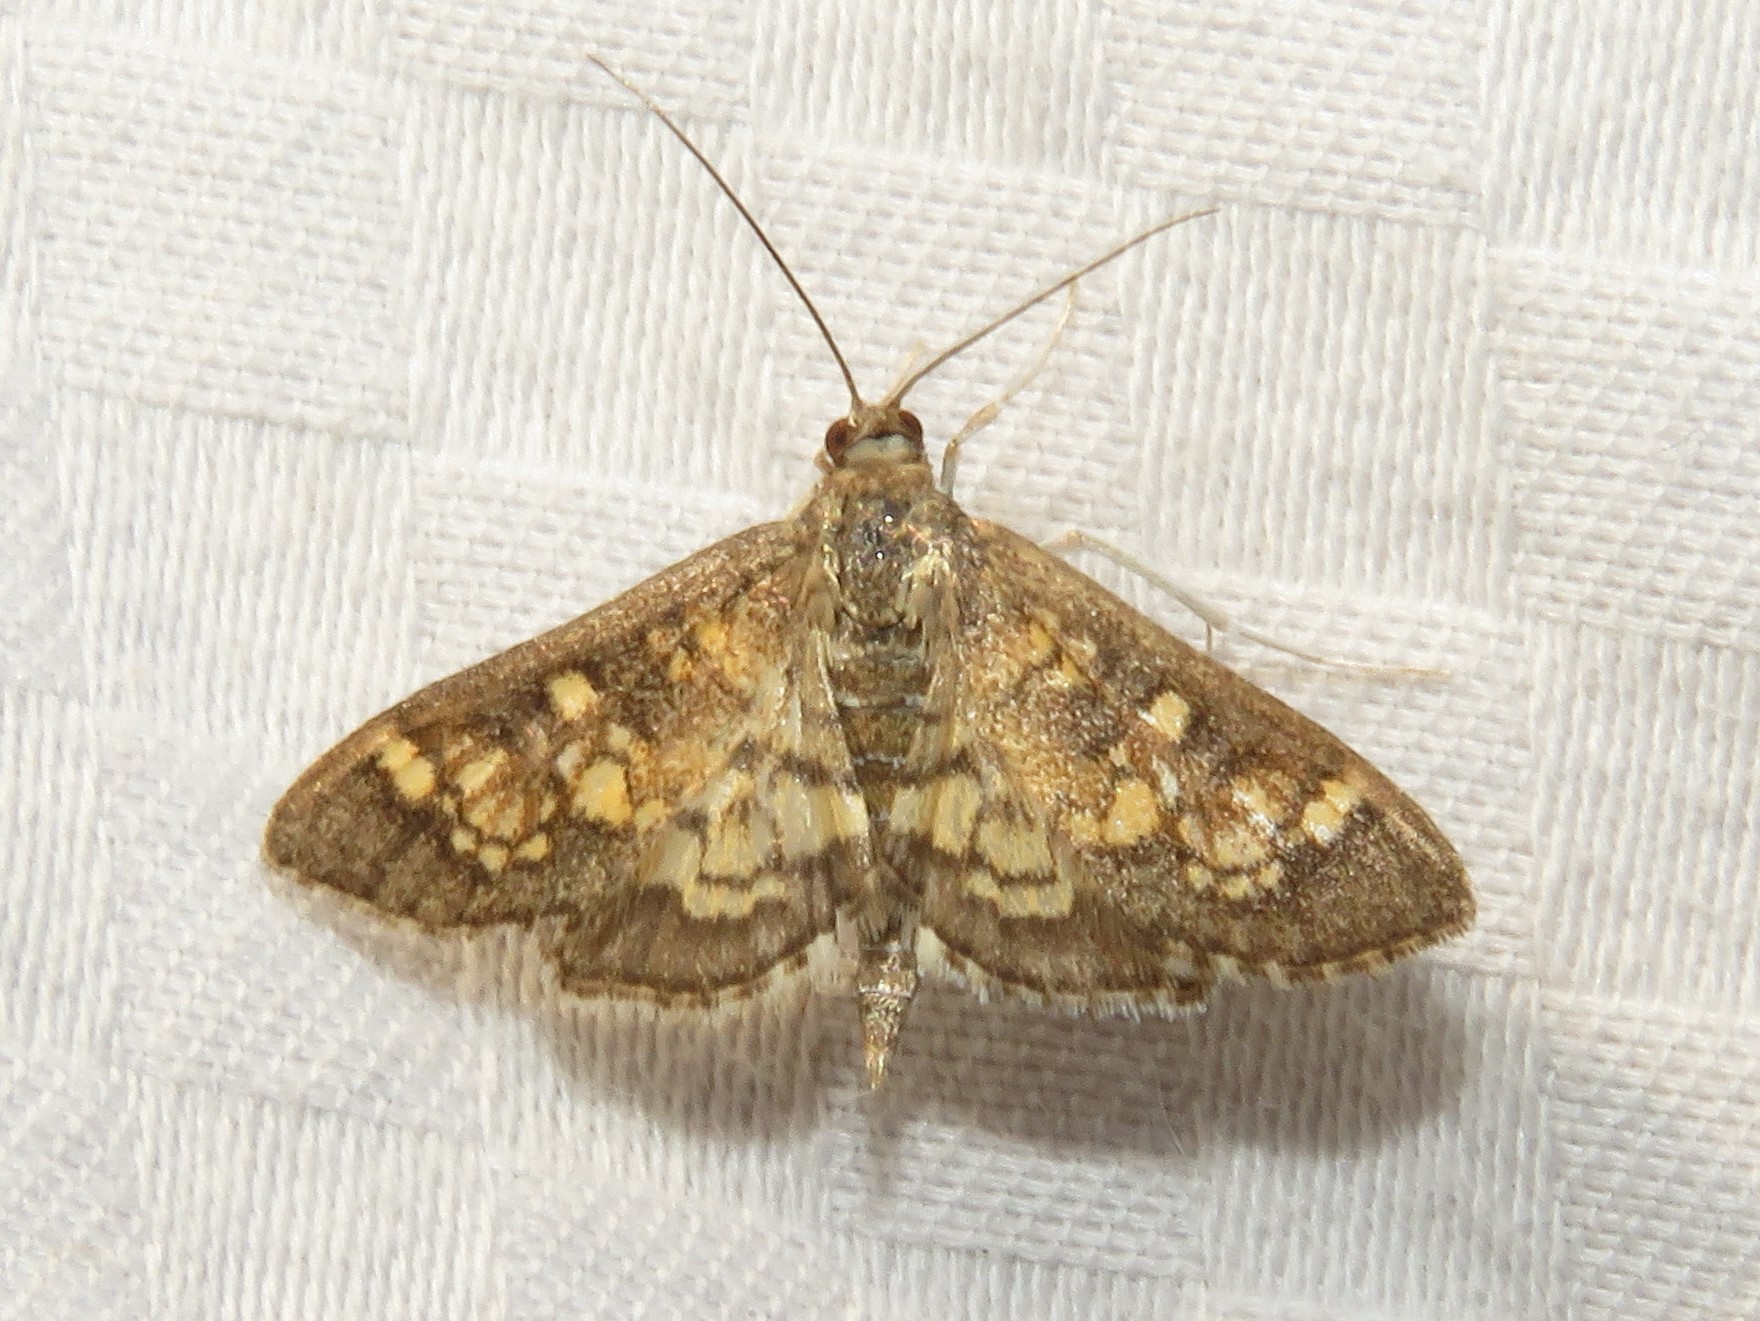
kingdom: Animalia
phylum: Arthropoda
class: Insecta
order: Lepidoptera
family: Crambidae
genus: Epipagis
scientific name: Epipagis adipaloides
